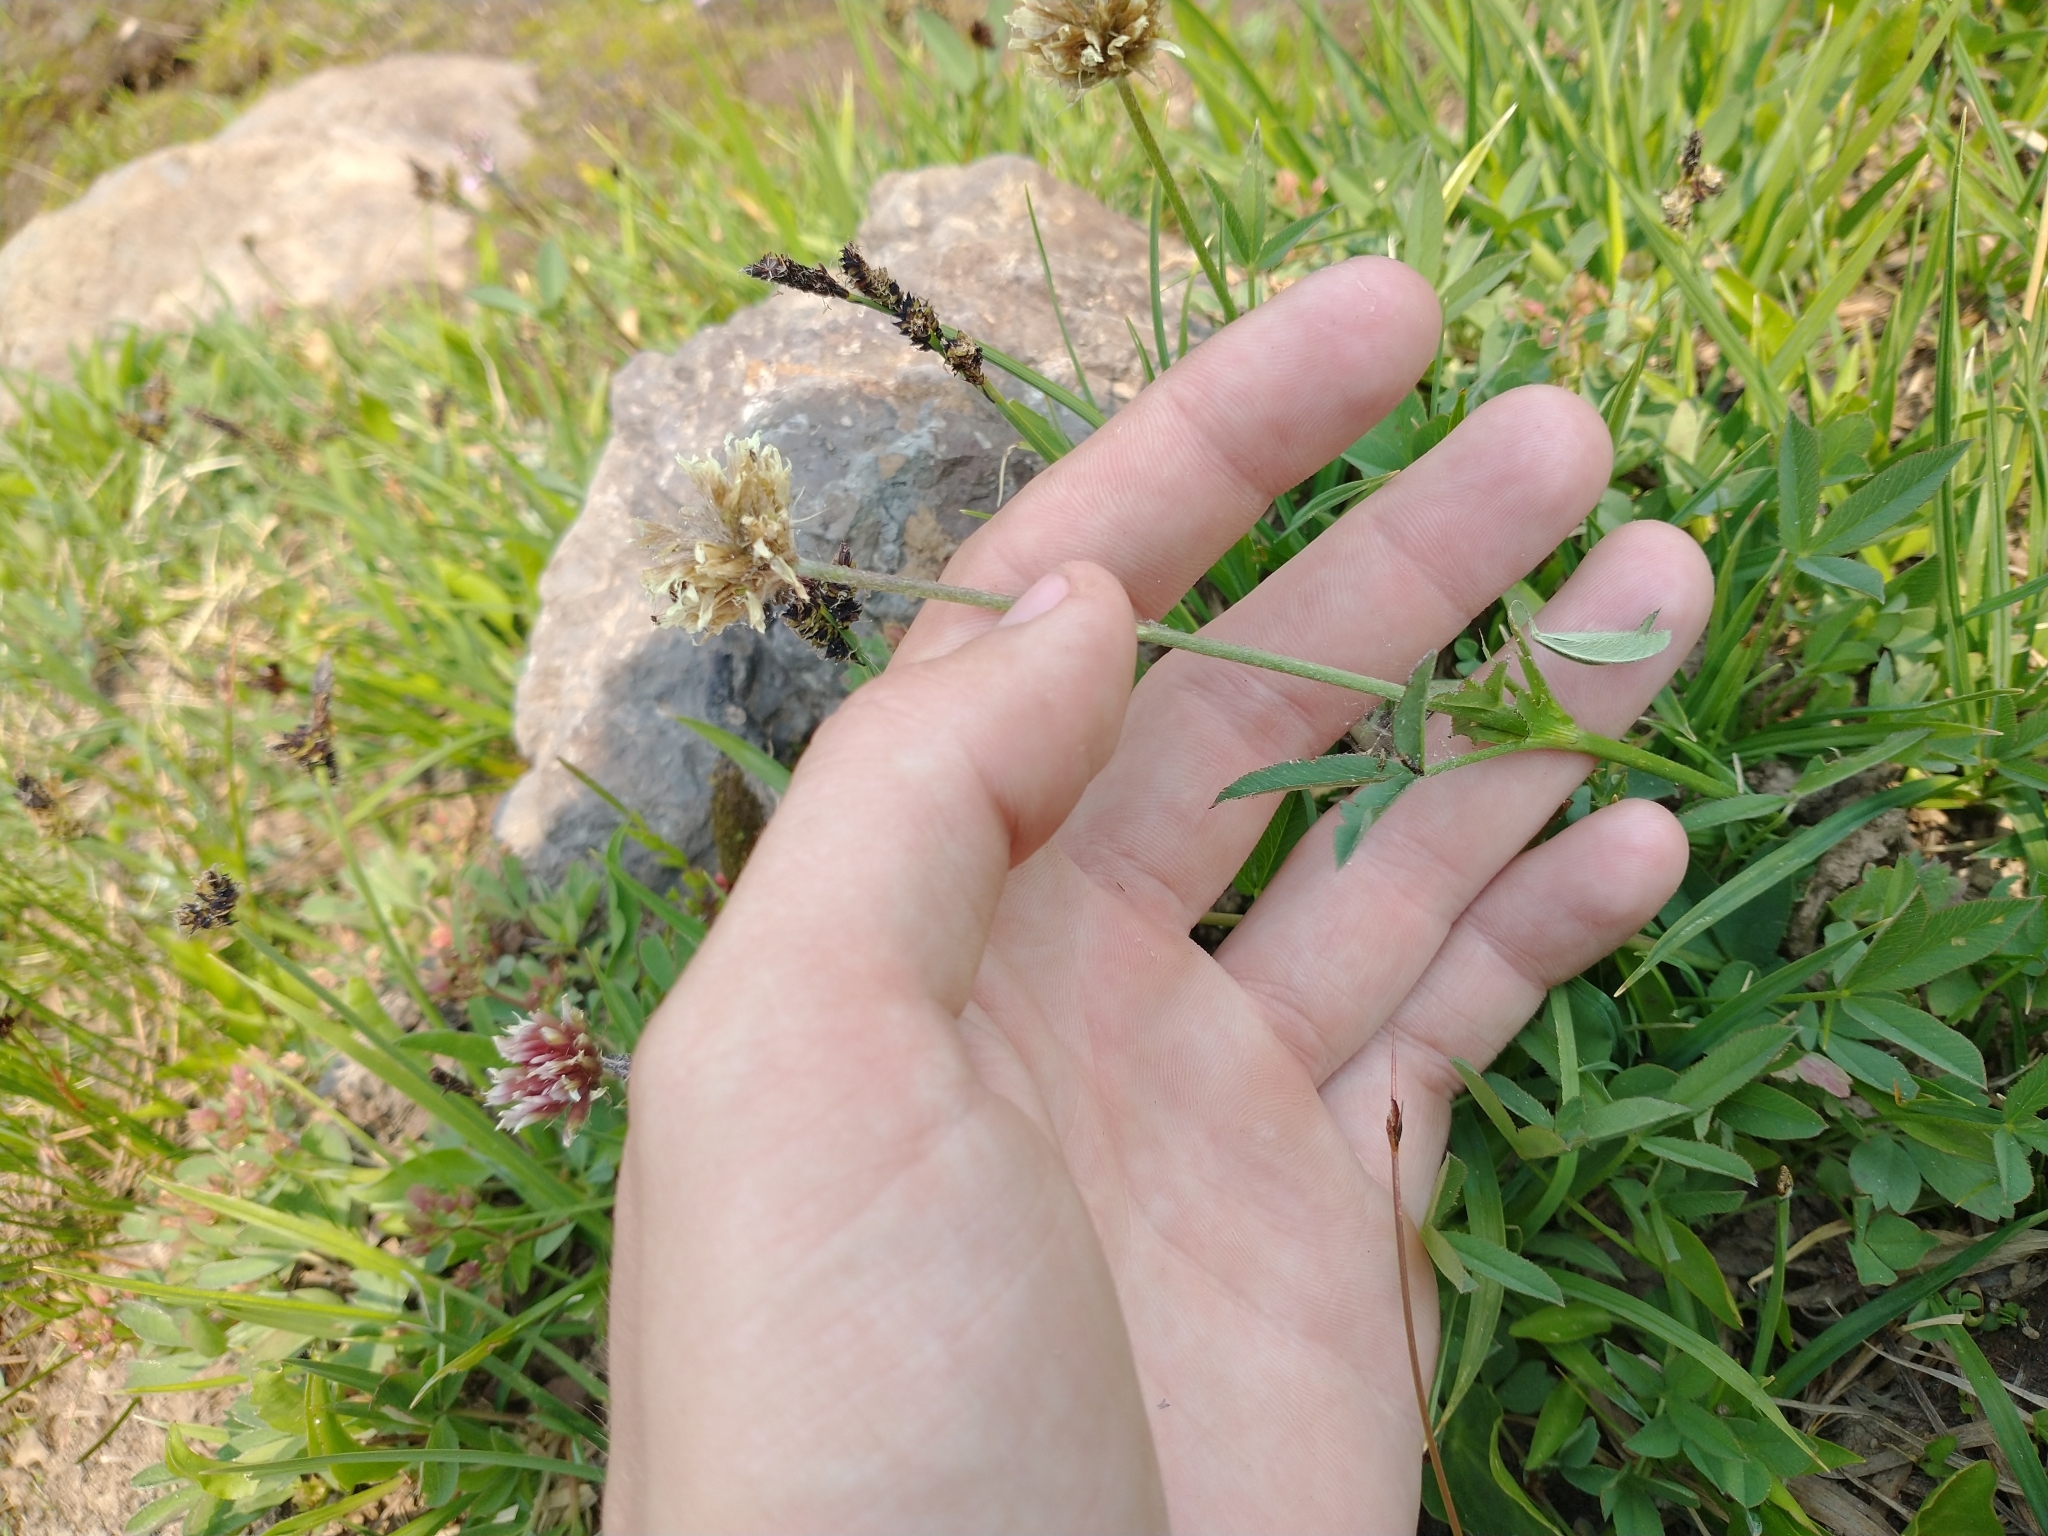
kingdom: Plantae
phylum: Tracheophyta
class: Magnoliopsida
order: Fabales
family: Fabaceae
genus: Trifolium
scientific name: Trifolium longipes
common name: Long-stalk clover
